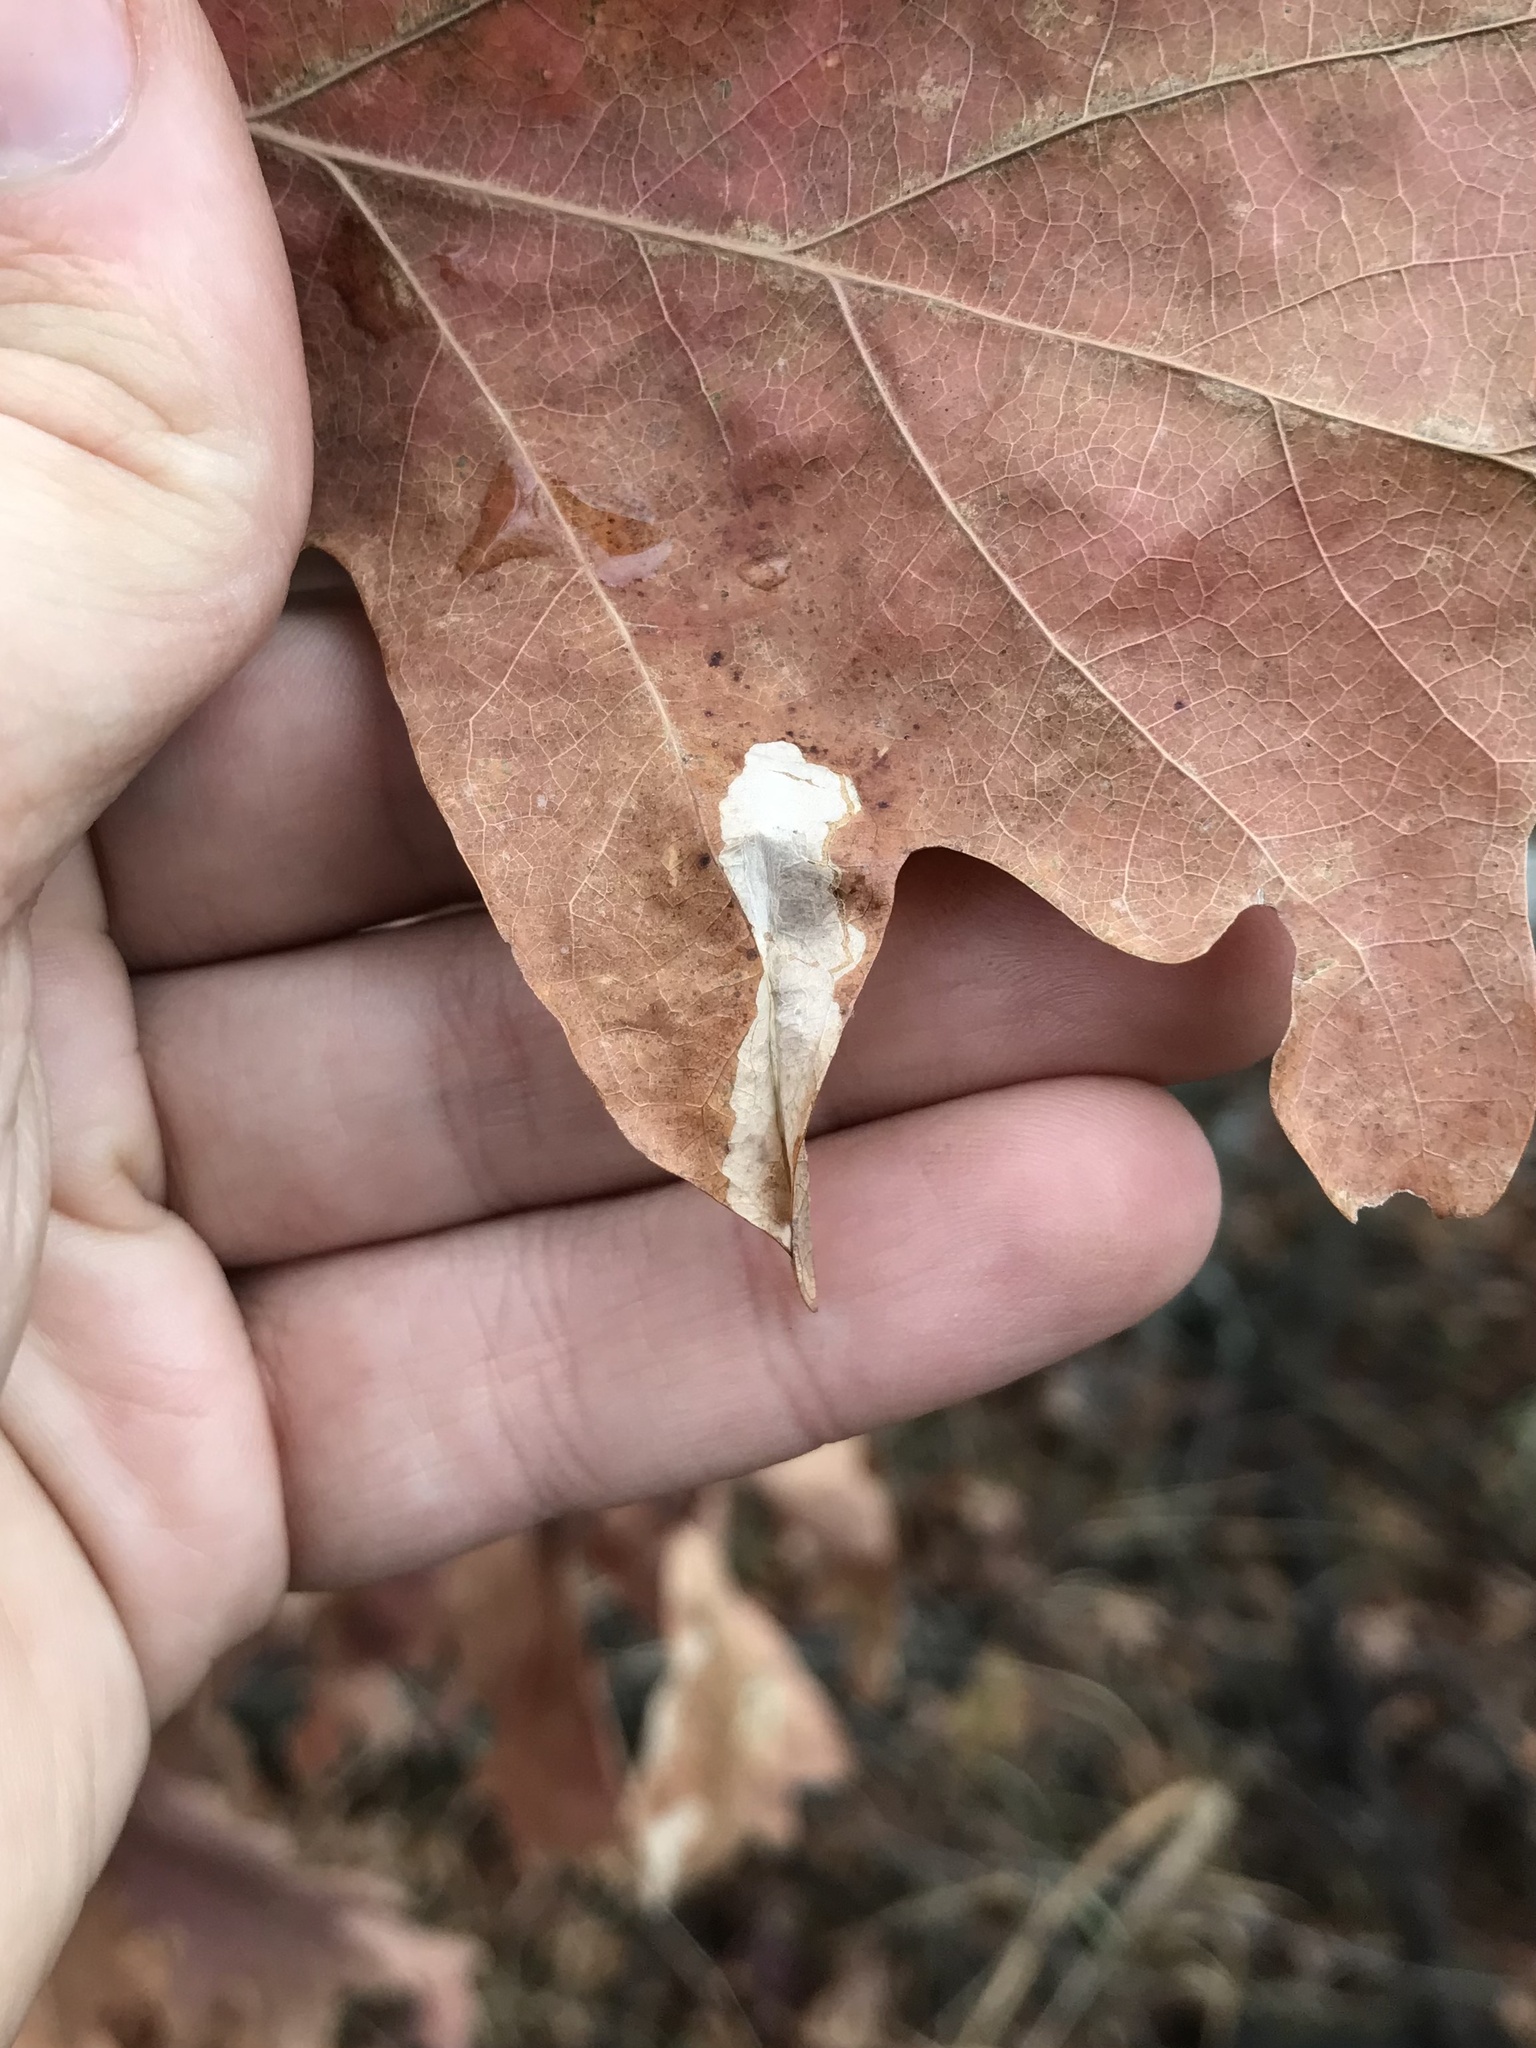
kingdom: Animalia
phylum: Arthropoda
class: Insecta
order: Lepidoptera
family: Tischeriidae
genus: Coptotriche
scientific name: Coptotriche badiiella
